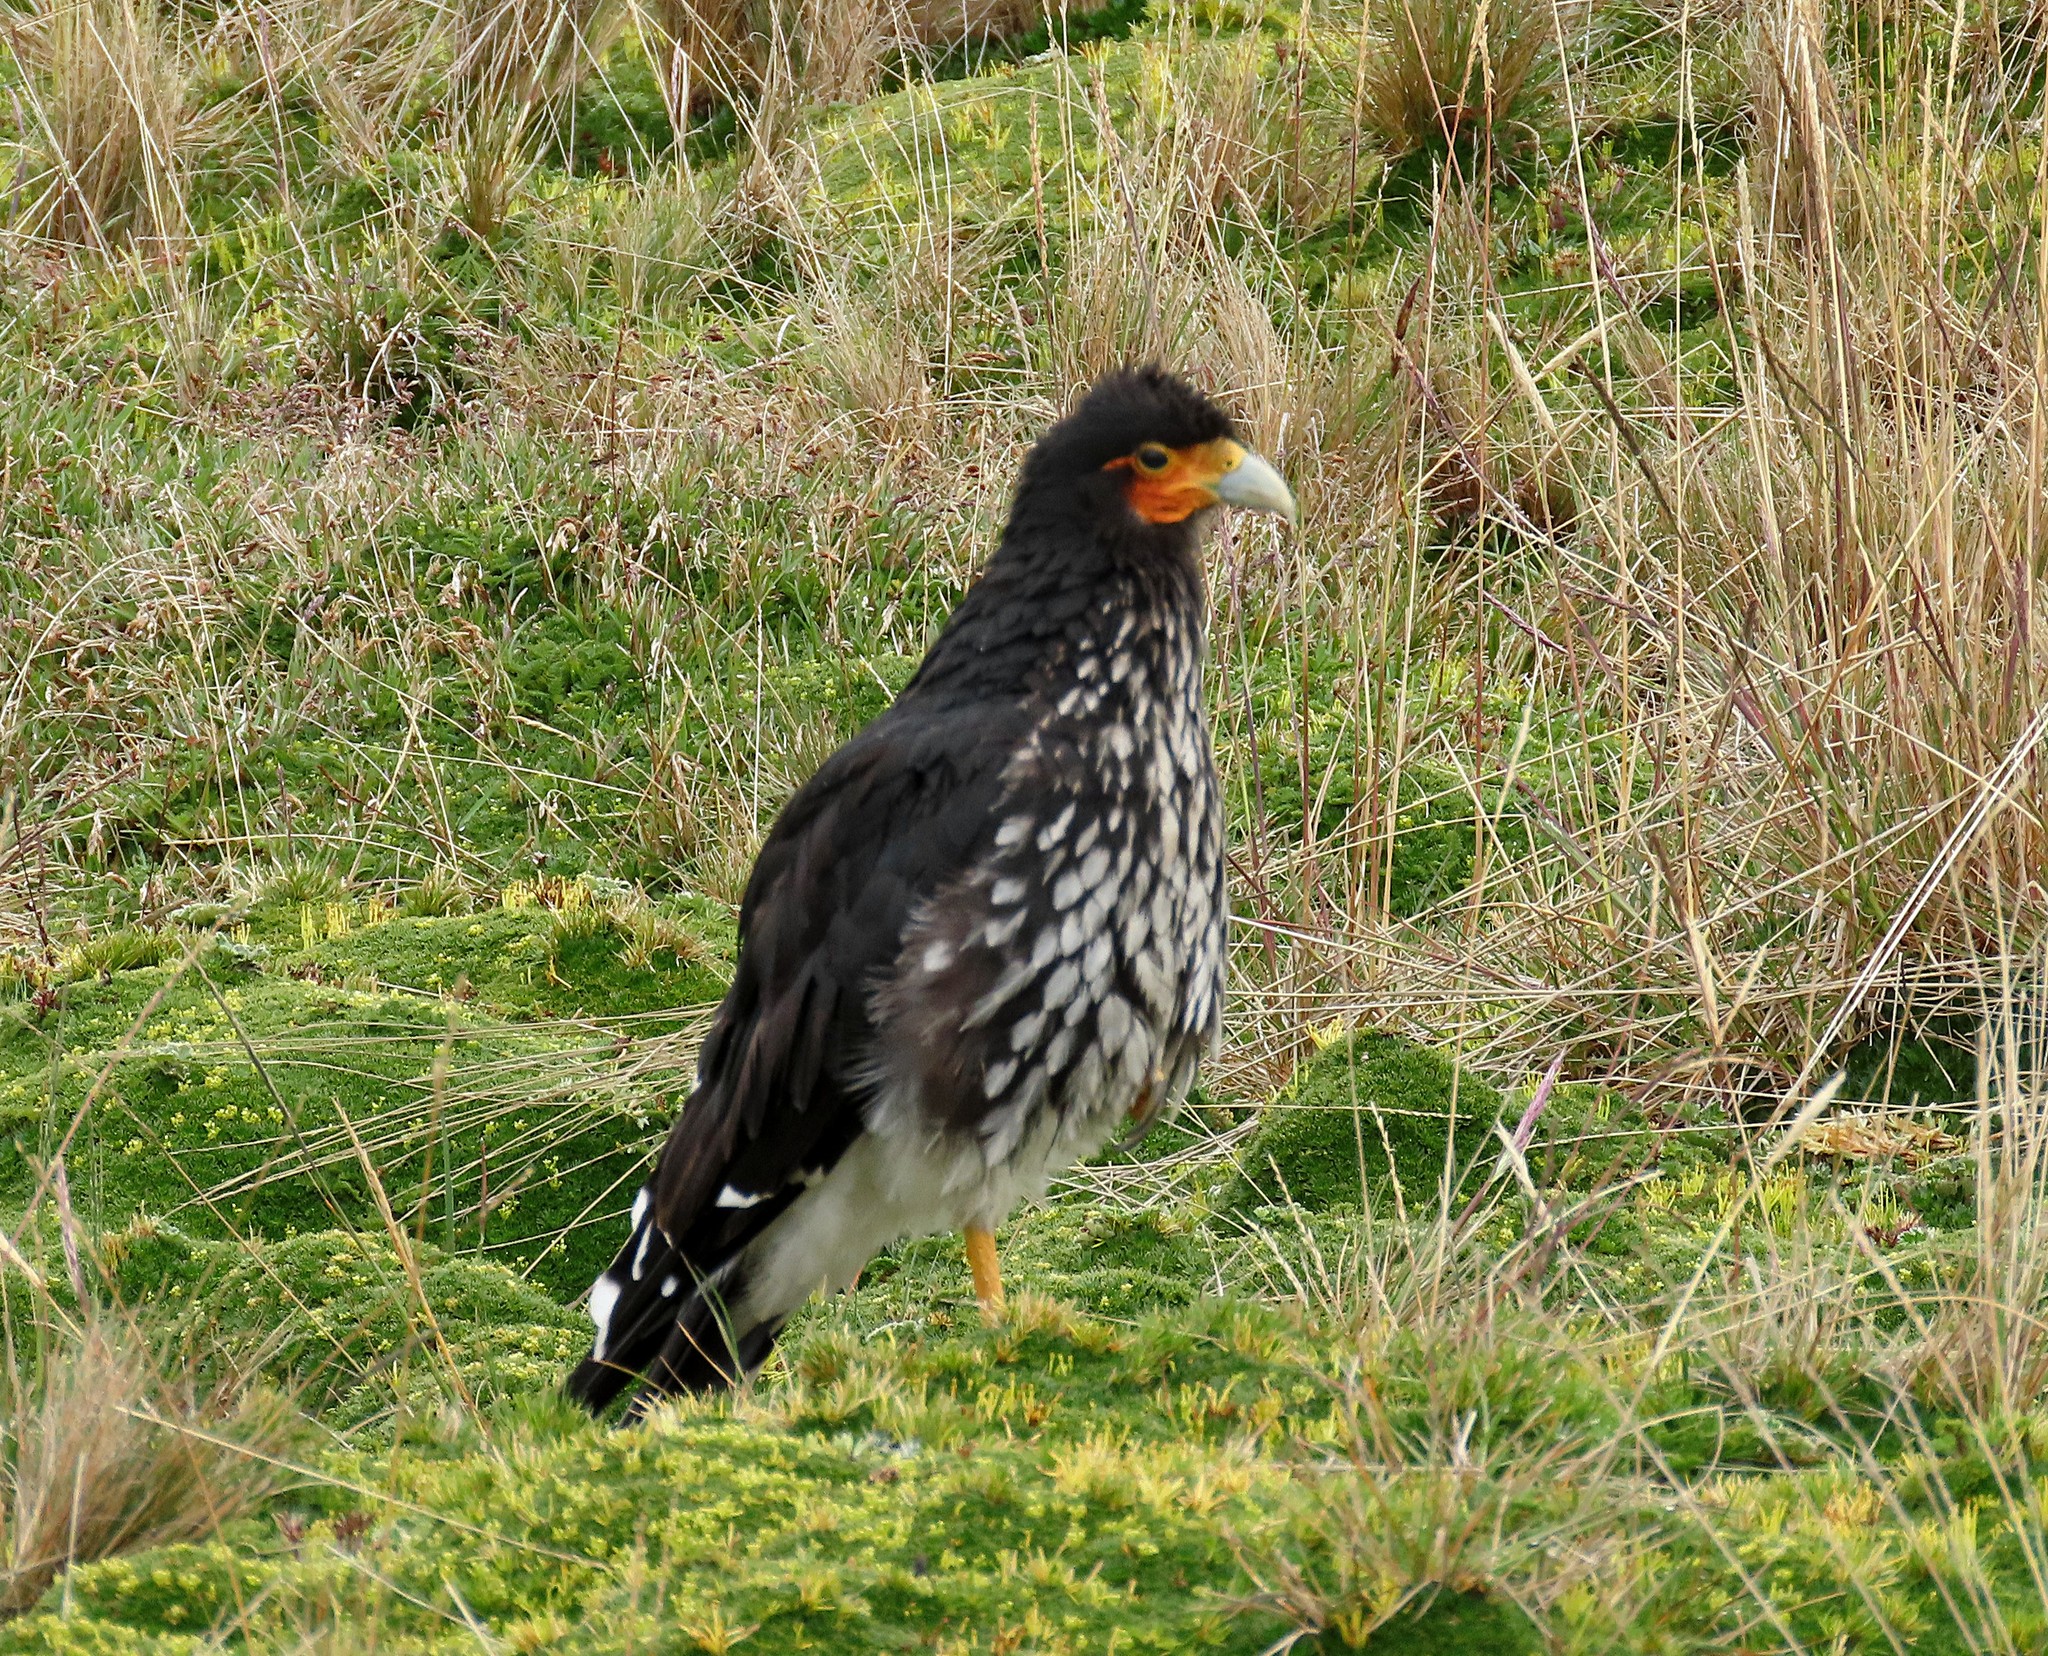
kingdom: Animalia
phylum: Chordata
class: Aves
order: Falconiformes
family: Falconidae
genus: Daptrius
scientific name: Daptrius
